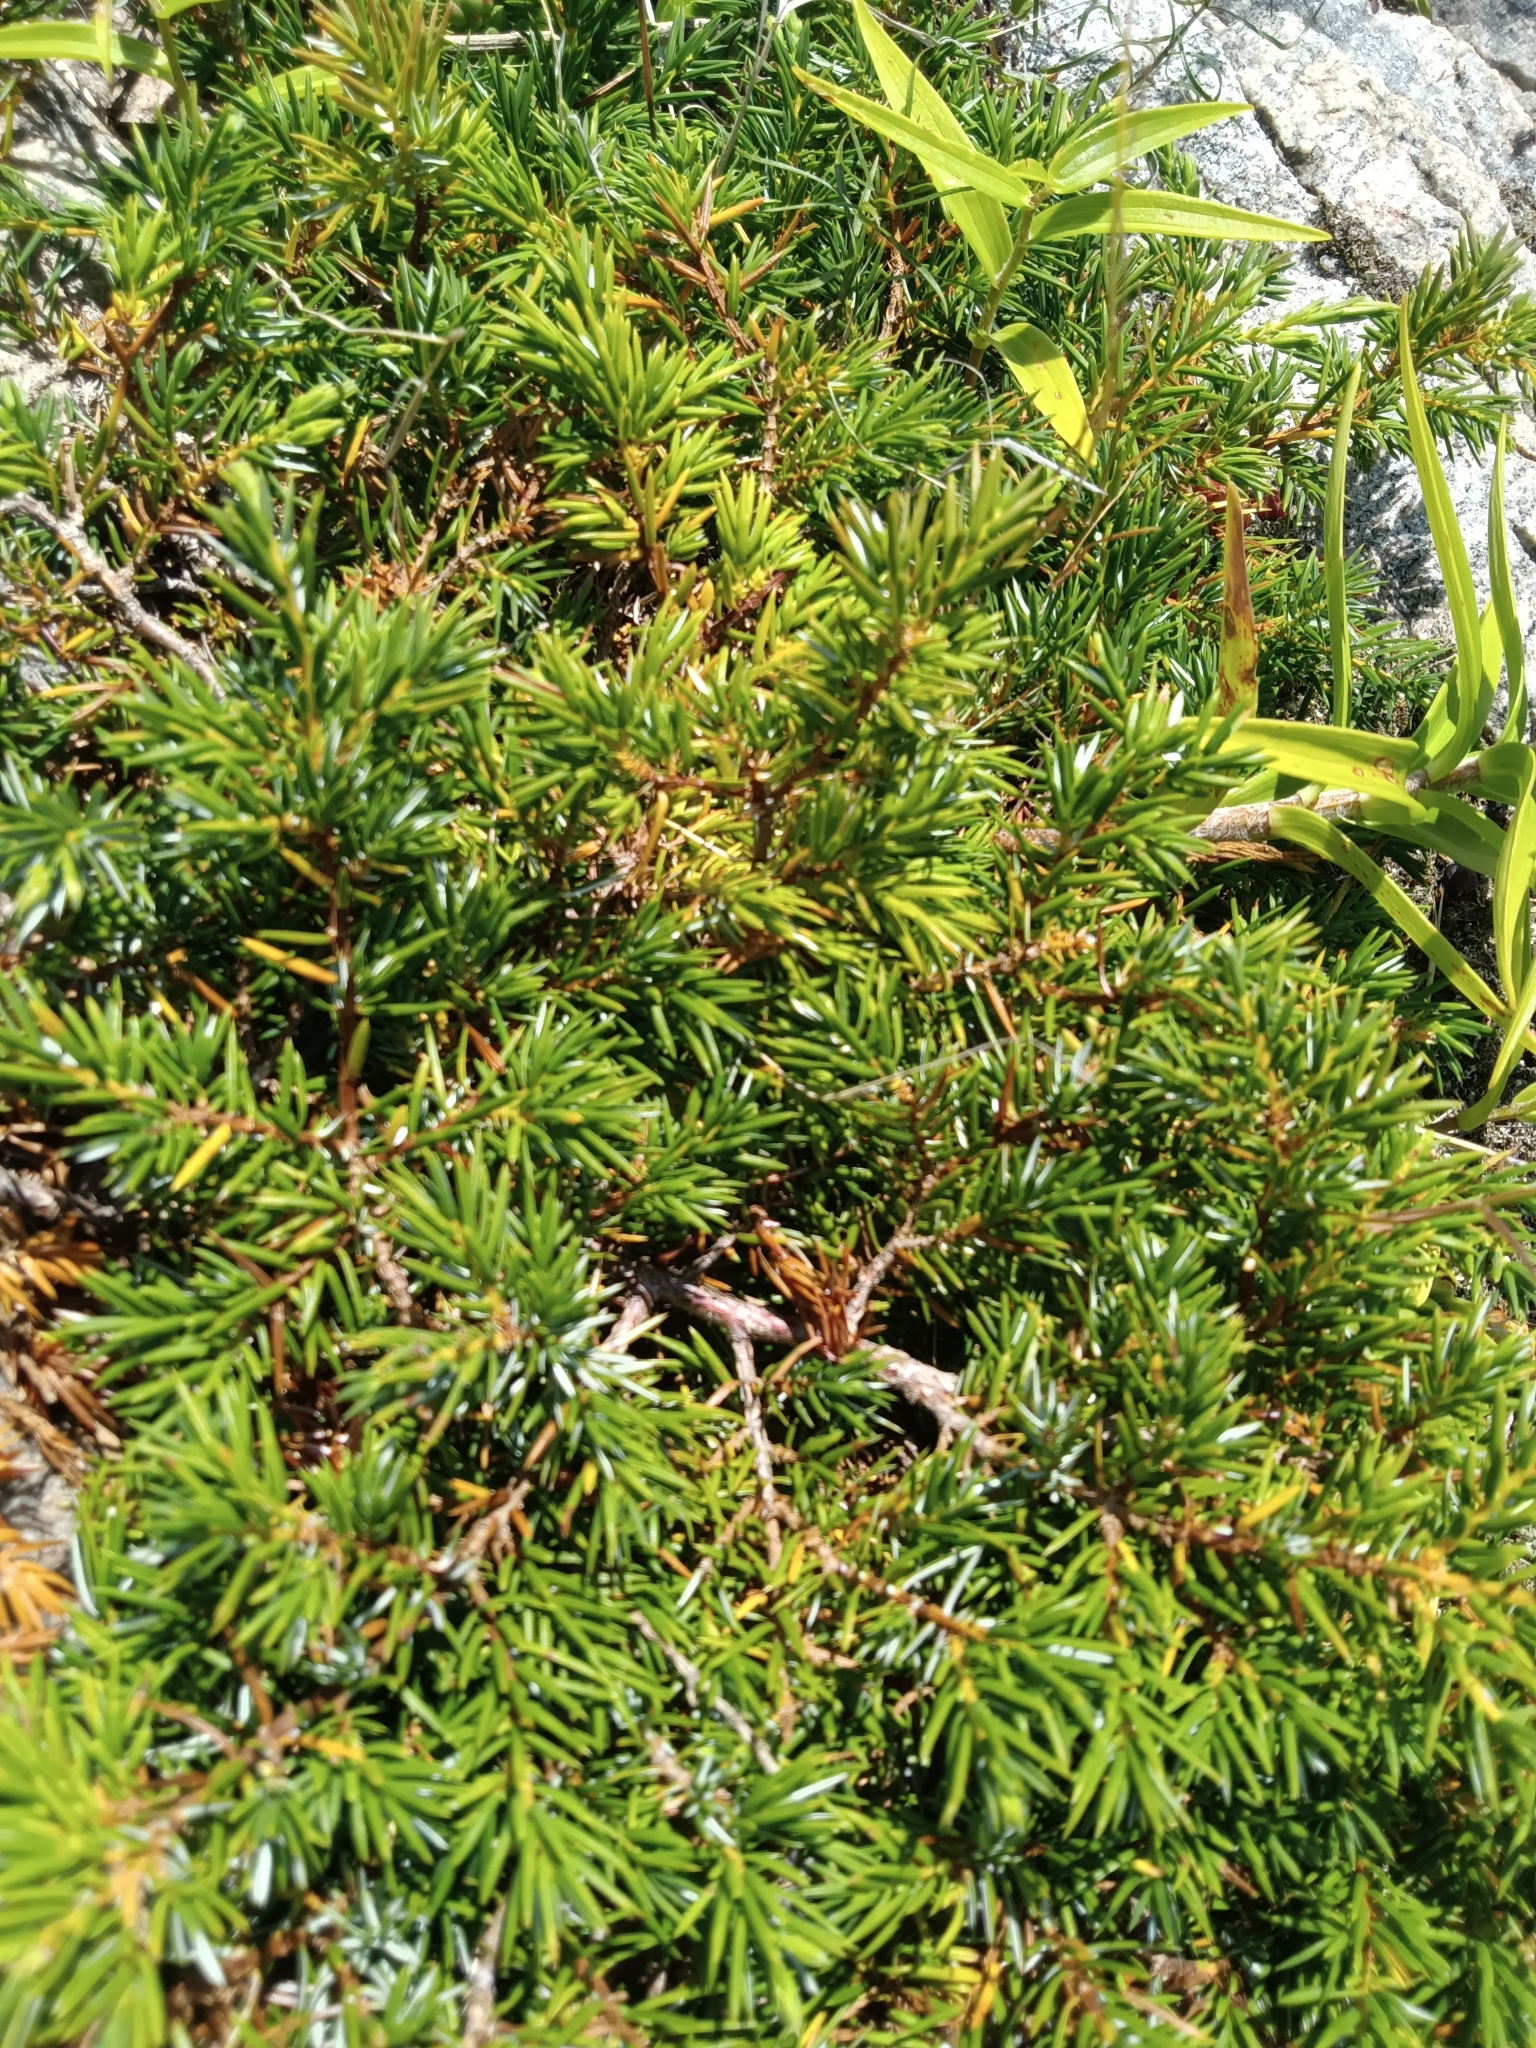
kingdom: Plantae
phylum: Tracheophyta
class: Pinopsida
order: Pinales
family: Cupressaceae
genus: Juniperus
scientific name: Juniperus communis
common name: Common juniper
